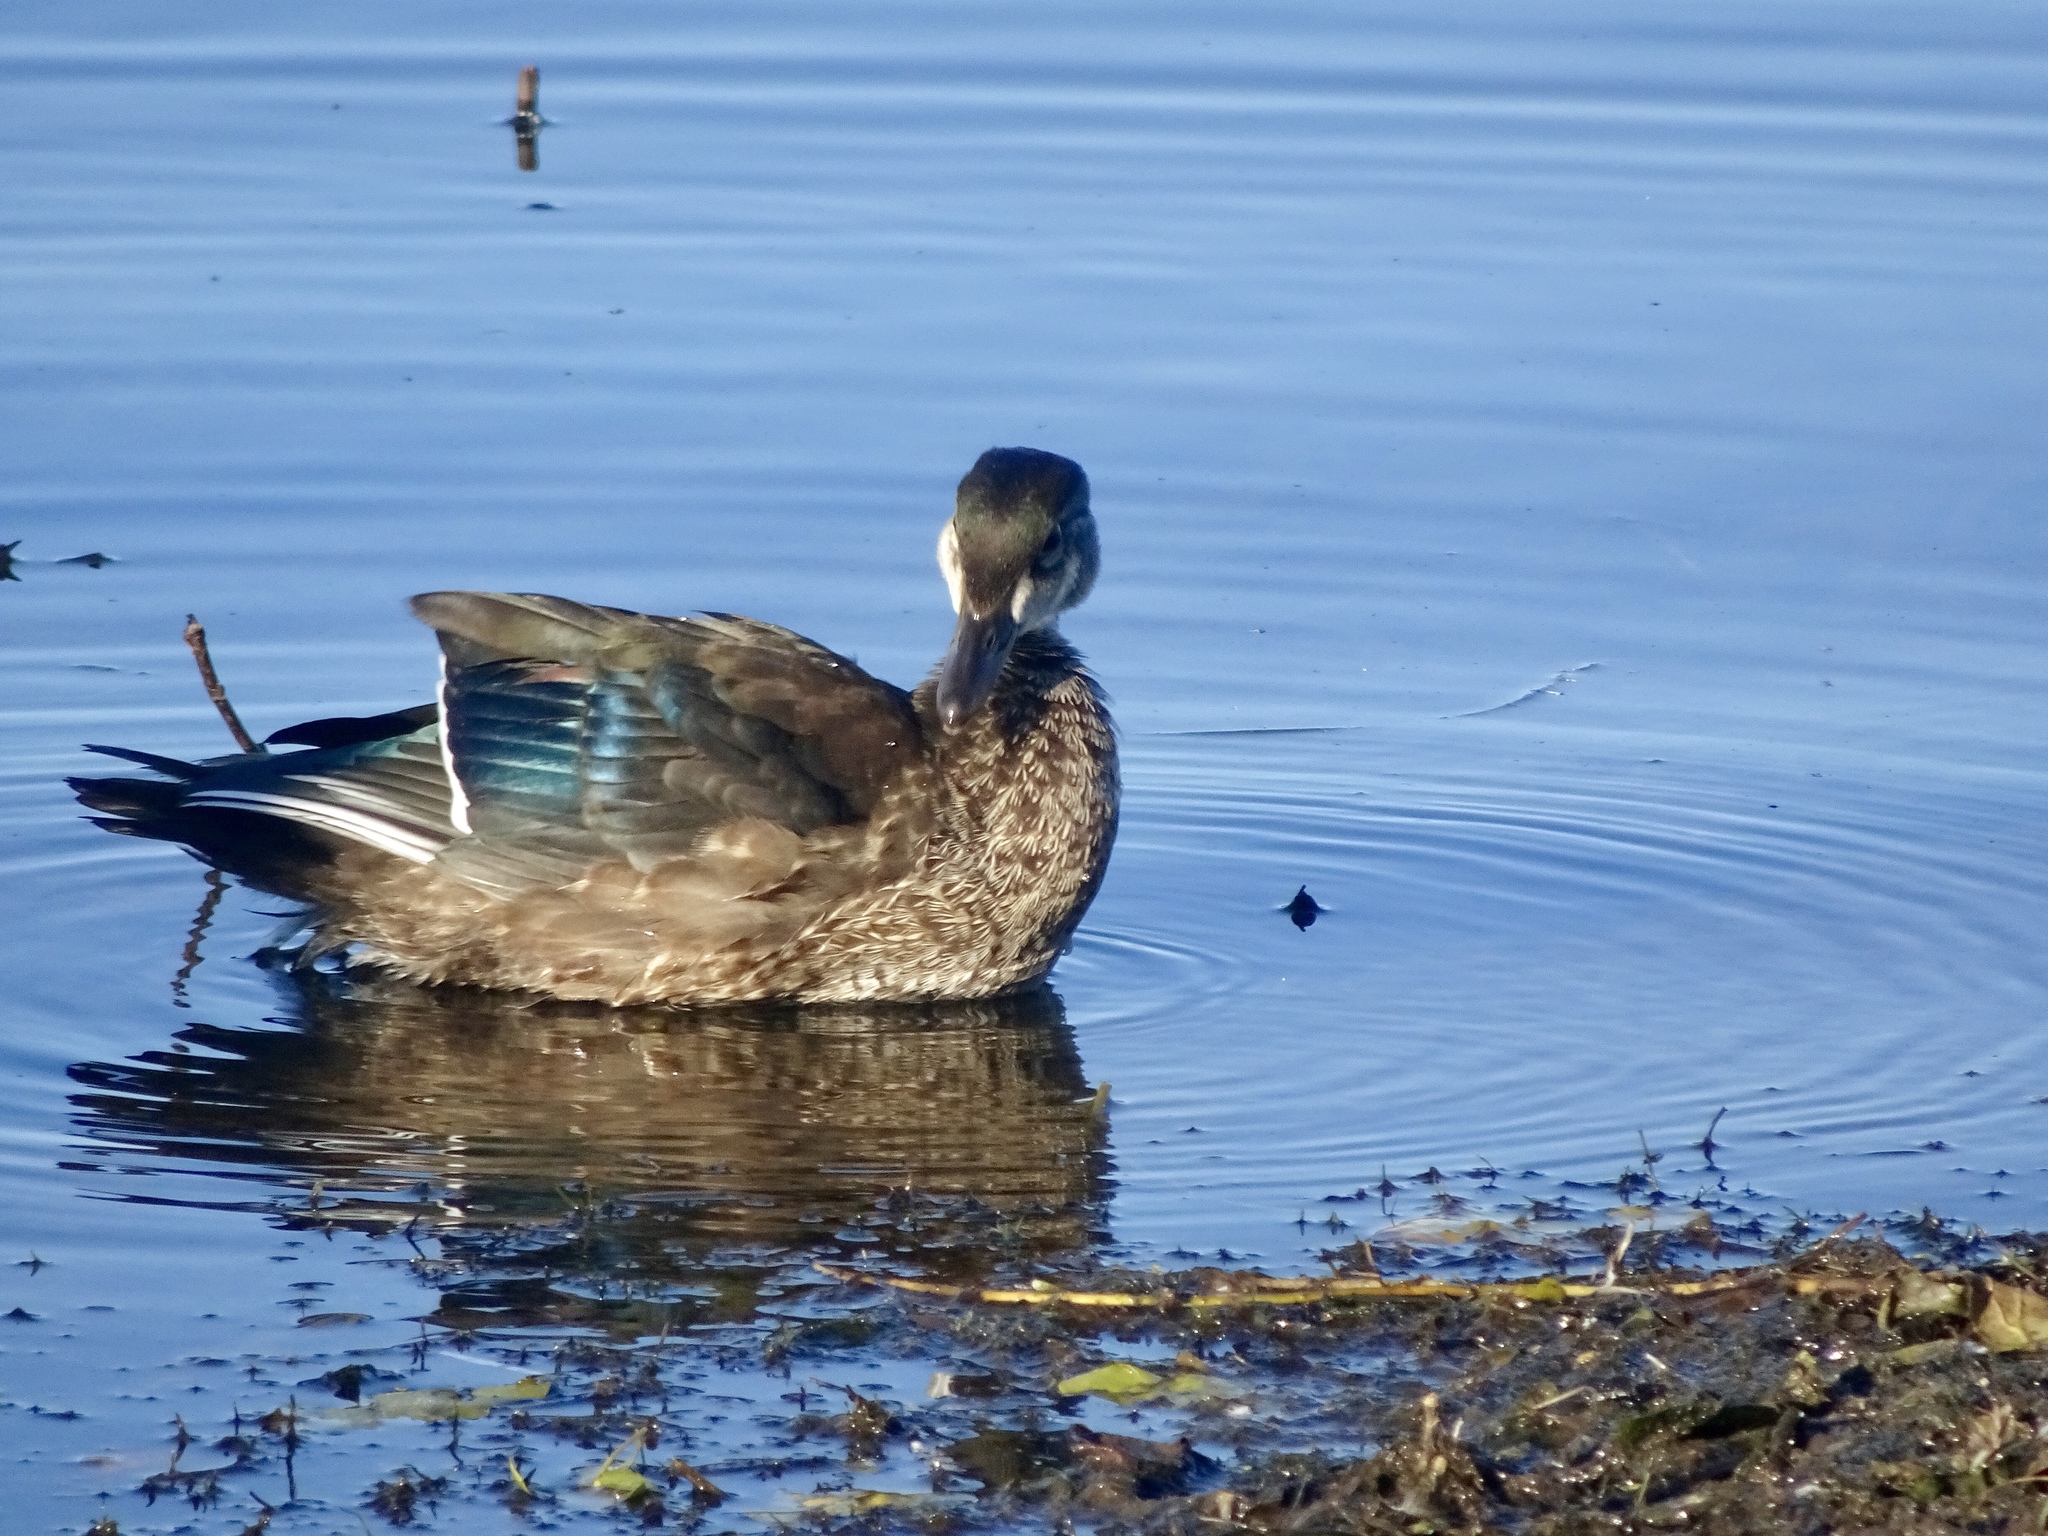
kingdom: Animalia
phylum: Chordata
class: Aves
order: Anseriformes
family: Anatidae
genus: Aix
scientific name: Aix sponsa
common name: Wood duck
